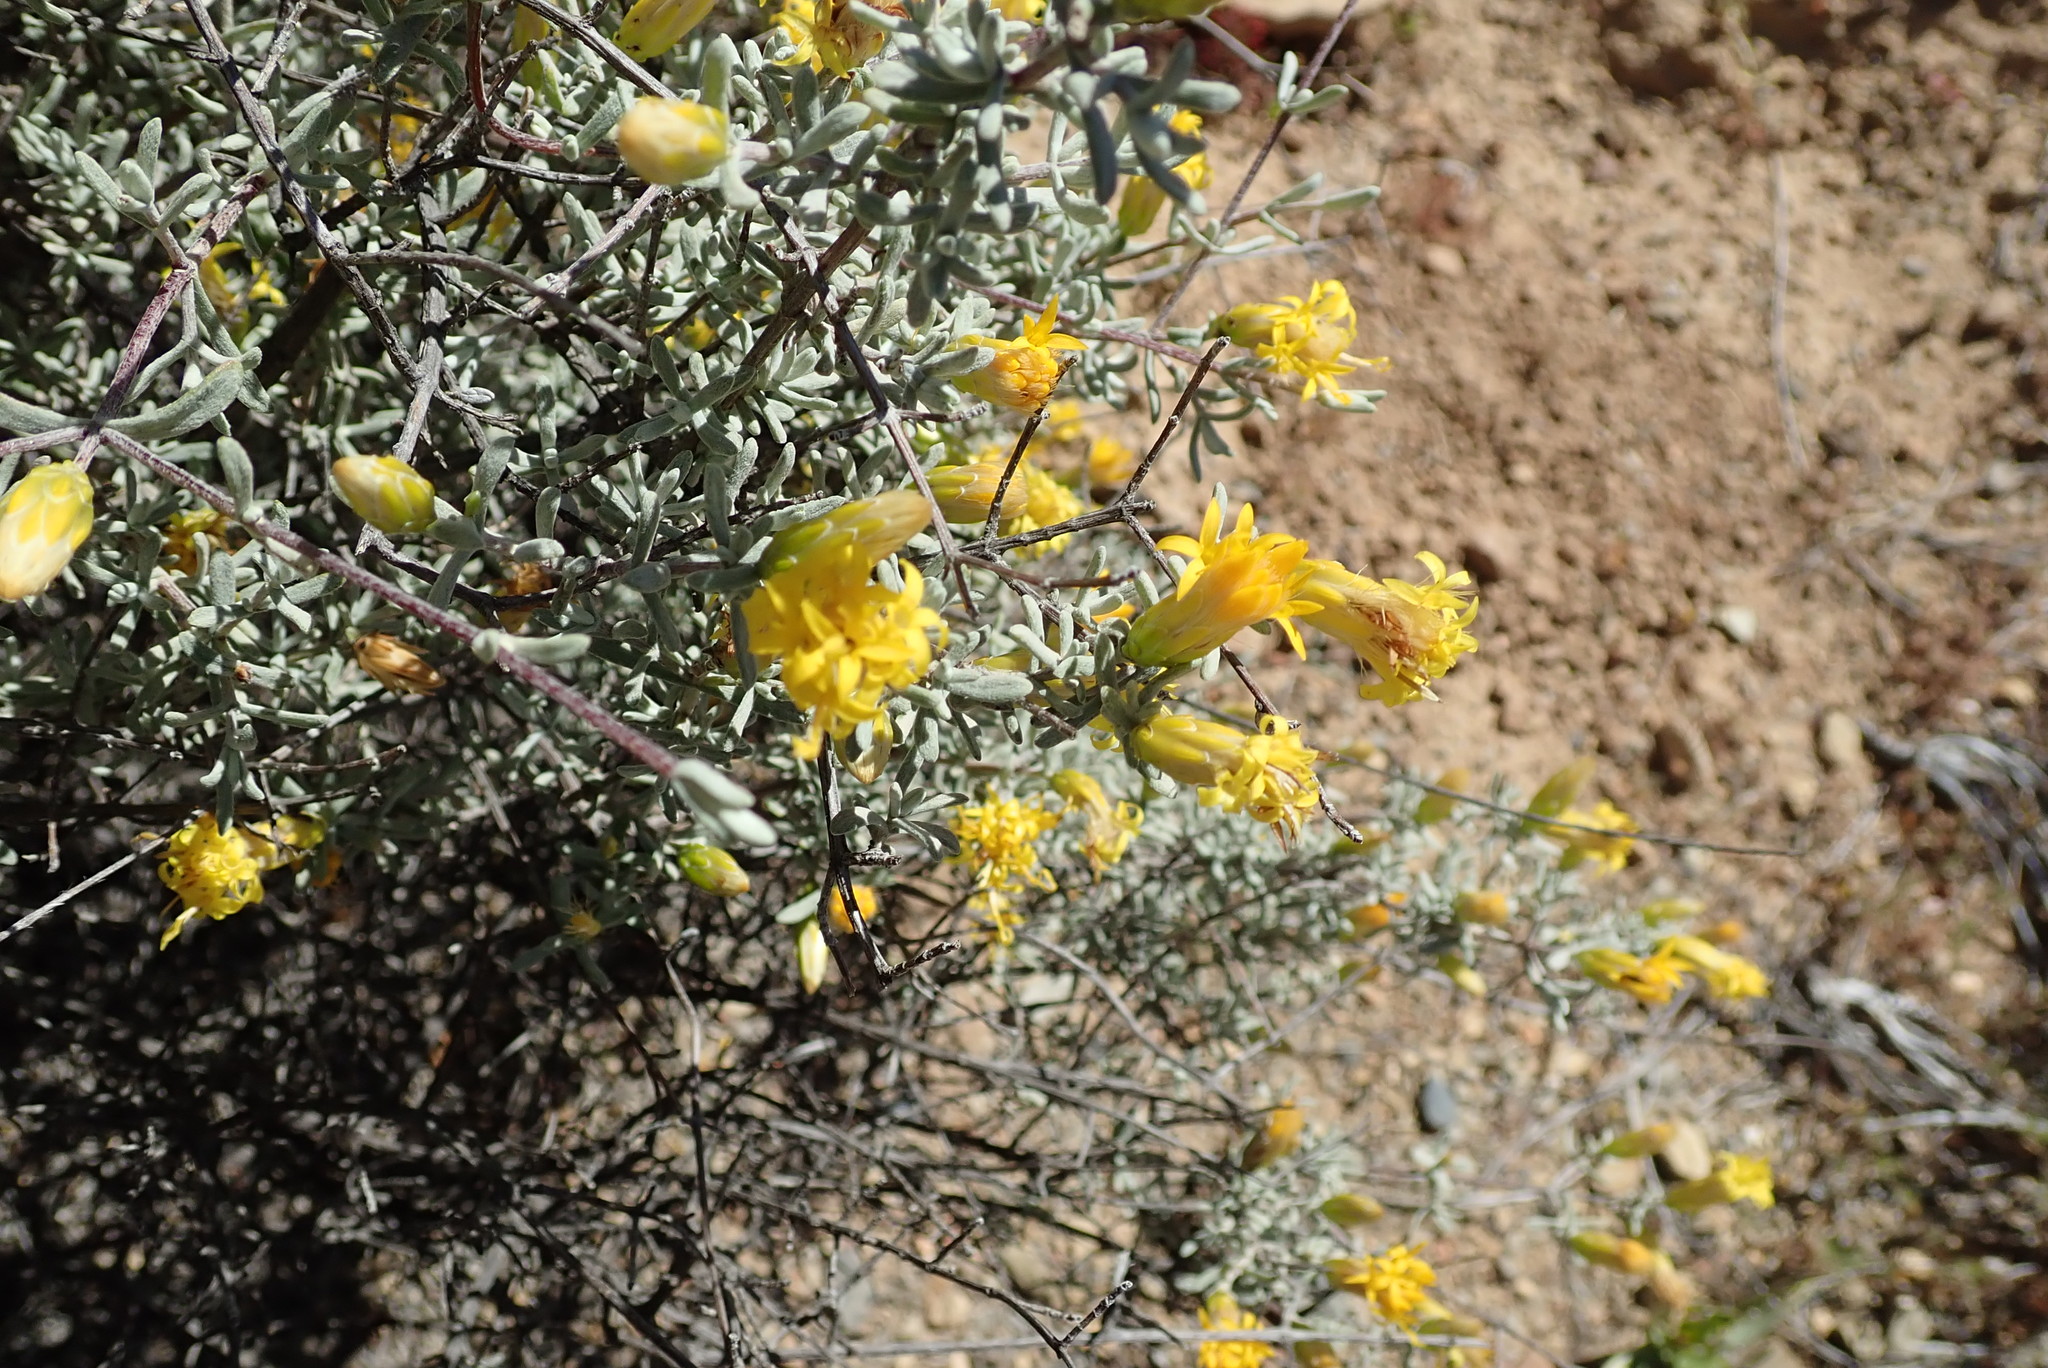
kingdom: Plantae
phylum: Tracheophyta
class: Magnoliopsida
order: Asterales
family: Asteraceae
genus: Pteronia
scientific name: Pteronia incana
